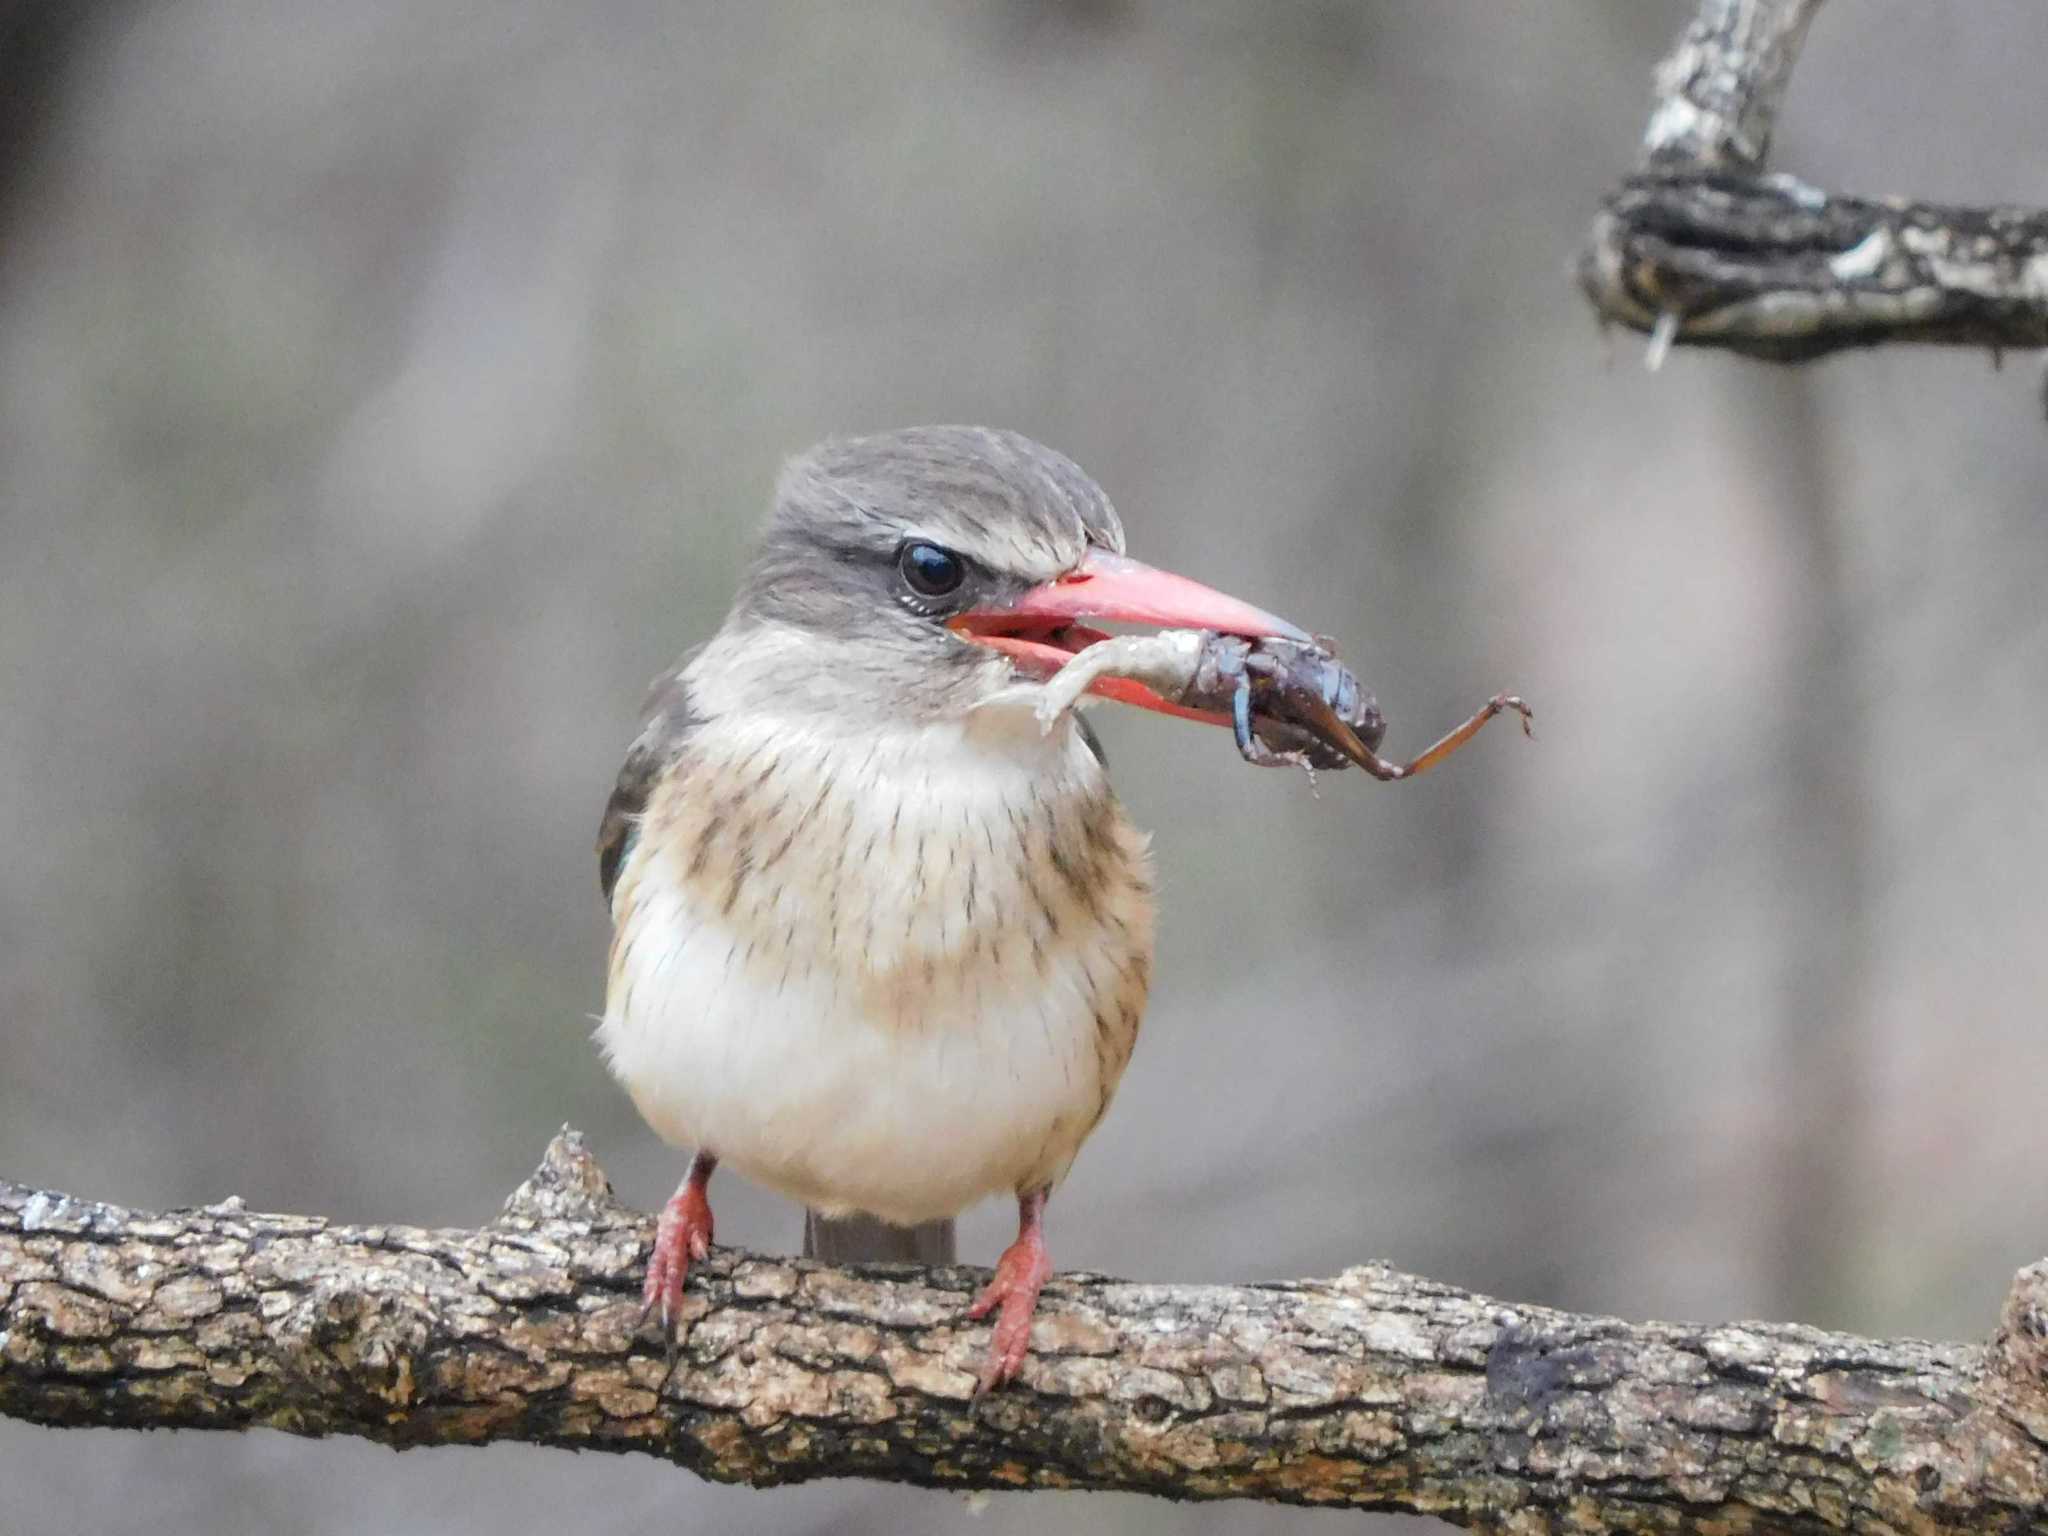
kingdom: Animalia
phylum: Chordata
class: Aves
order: Coraciiformes
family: Alcedinidae
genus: Halcyon
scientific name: Halcyon albiventris
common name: Brown-hooded kingfisher
